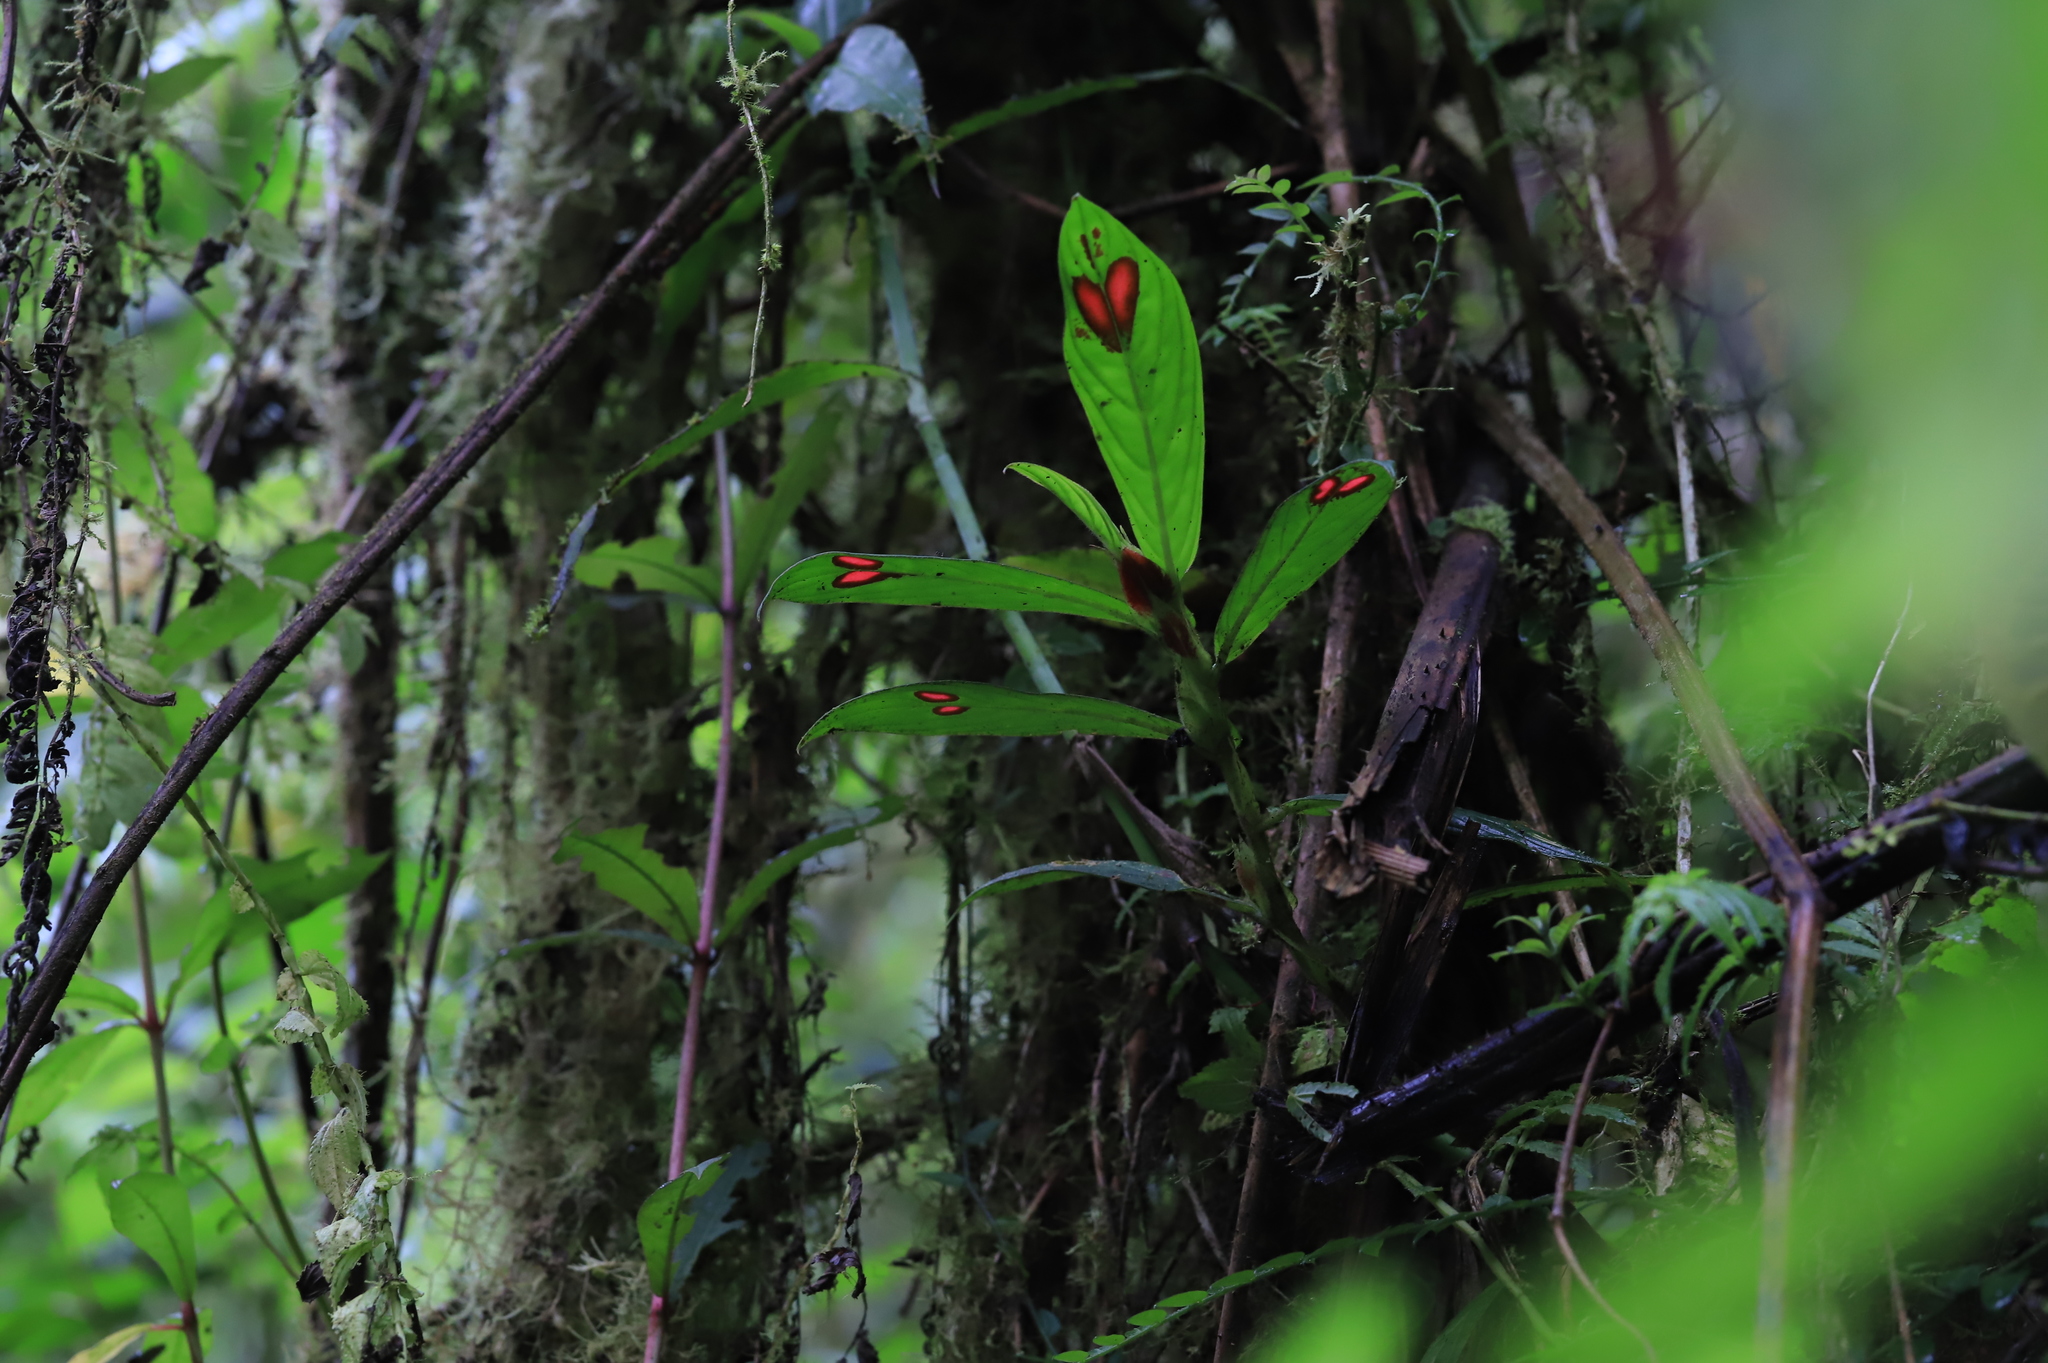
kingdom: Plantae
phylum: Tracheophyta
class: Magnoliopsida
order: Lamiales
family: Gesneriaceae
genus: Columnea
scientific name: Columnea consanguinea
